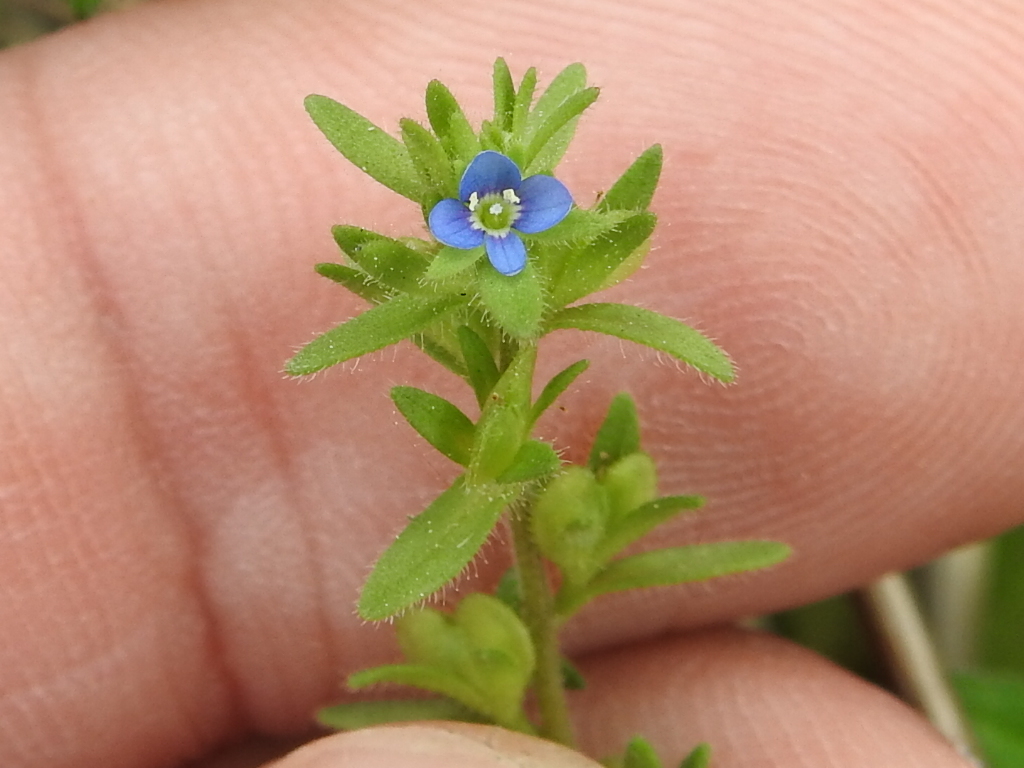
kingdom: Plantae
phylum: Tracheophyta
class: Magnoliopsida
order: Lamiales
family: Plantaginaceae
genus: Veronica
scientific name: Veronica arvensis
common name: Corn speedwell
